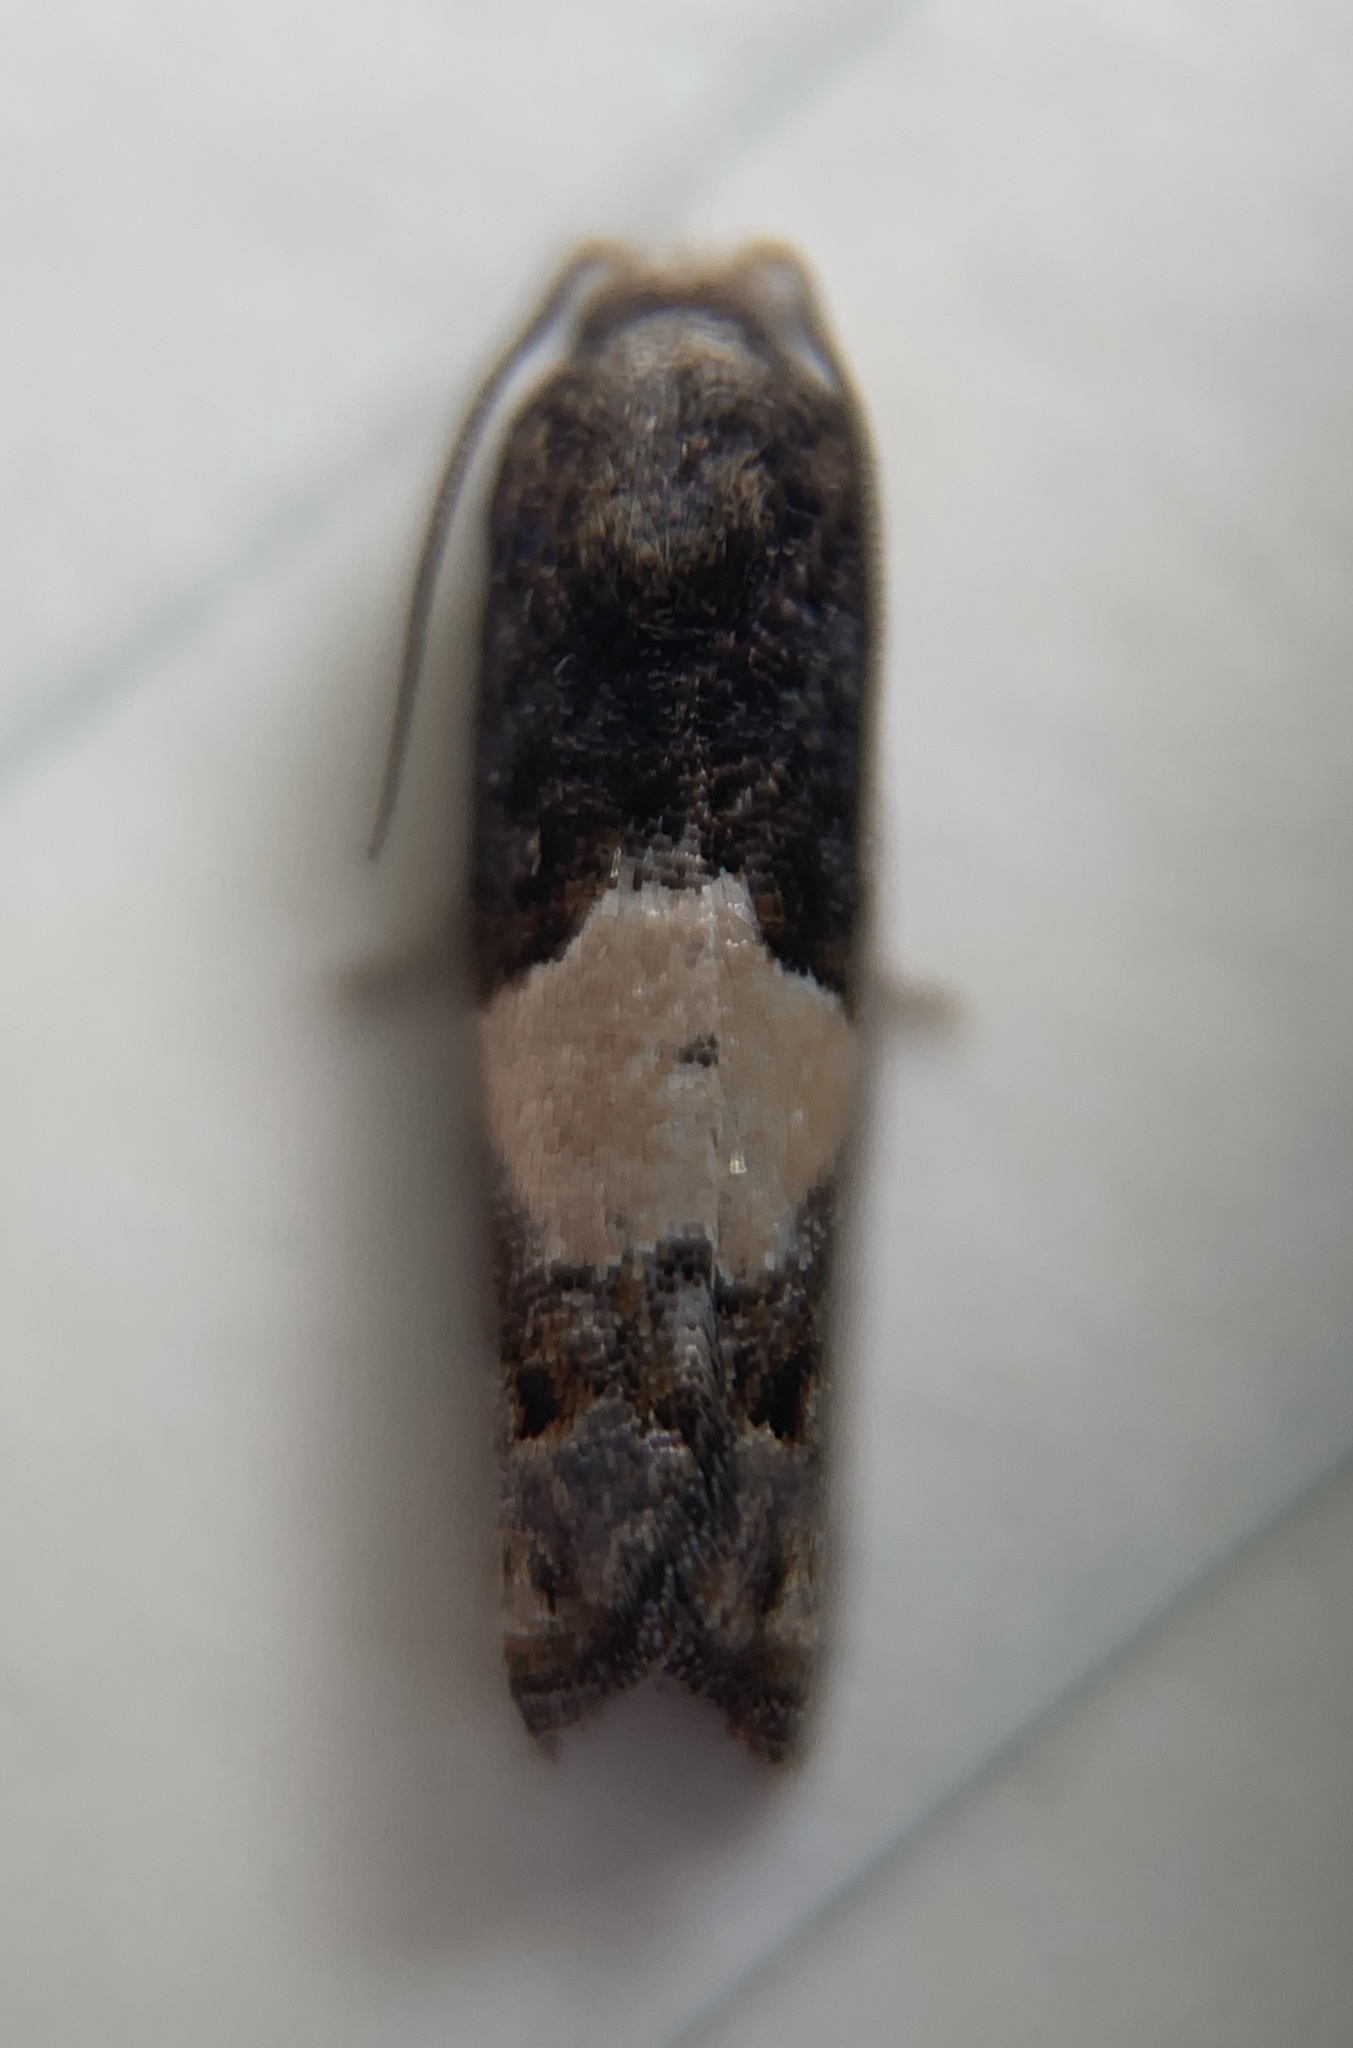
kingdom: Animalia
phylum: Arthropoda
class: Insecta
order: Lepidoptera
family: Tortricidae
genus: Epiblema
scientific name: Epiblema glenni
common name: Glenn's epiblema
